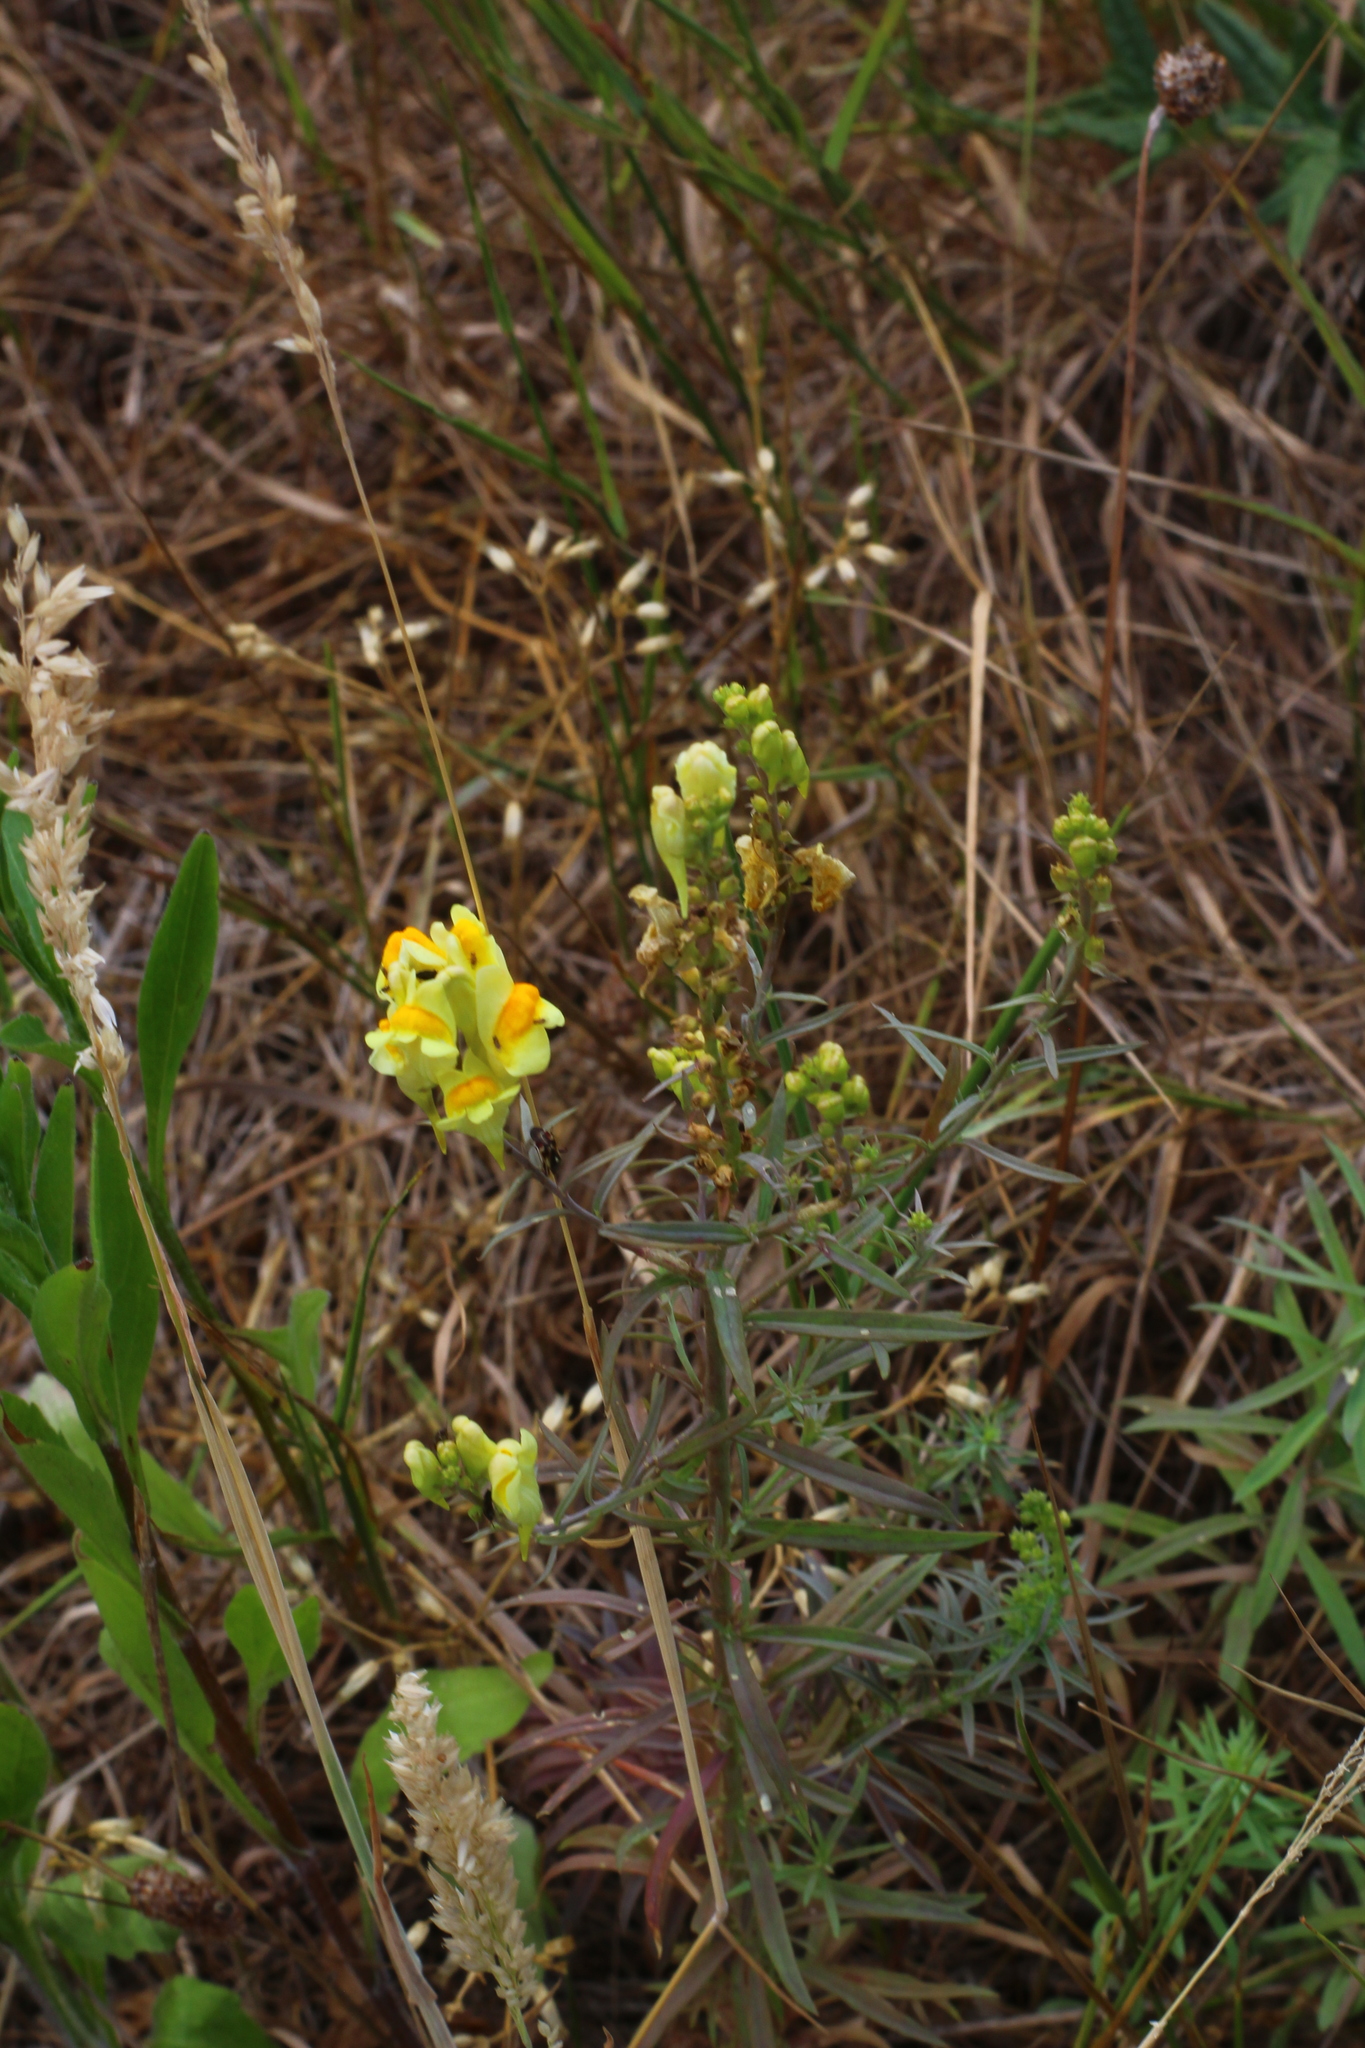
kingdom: Plantae
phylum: Tracheophyta
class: Magnoliopsida
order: Lamiales
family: Plantaginaceae
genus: Linaria
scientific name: Linaria vulgaris
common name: Butter and eggs
